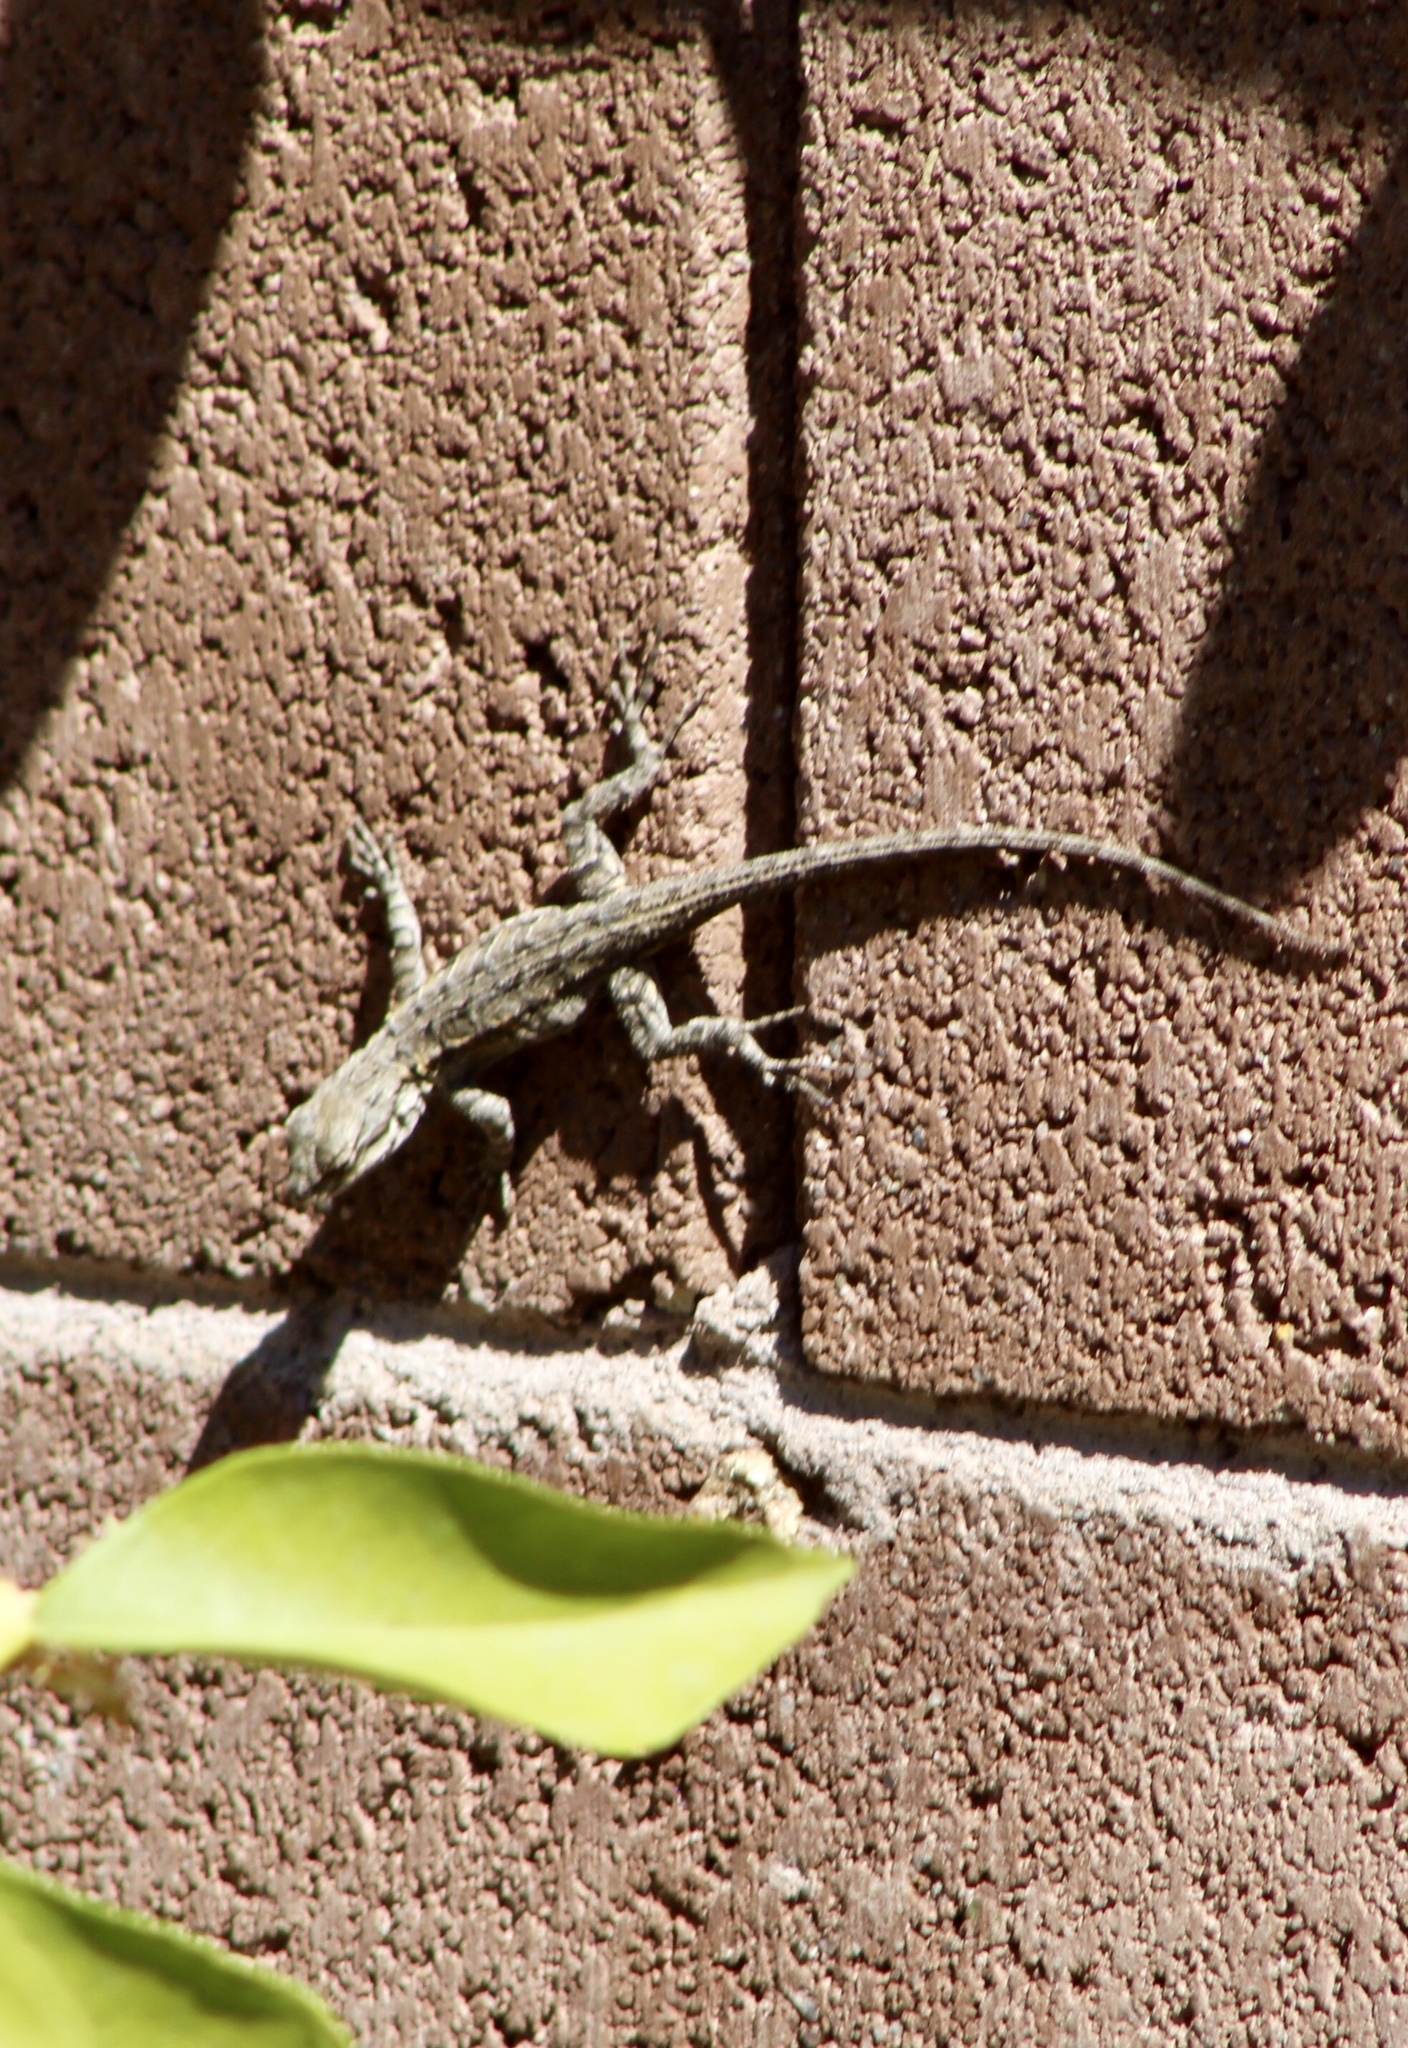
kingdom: Animalia
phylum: Chordata
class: Squamata
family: Phrynosomatidae
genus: Urosaurus
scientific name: Urosaurus ornatus
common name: Ornate tree lizard
